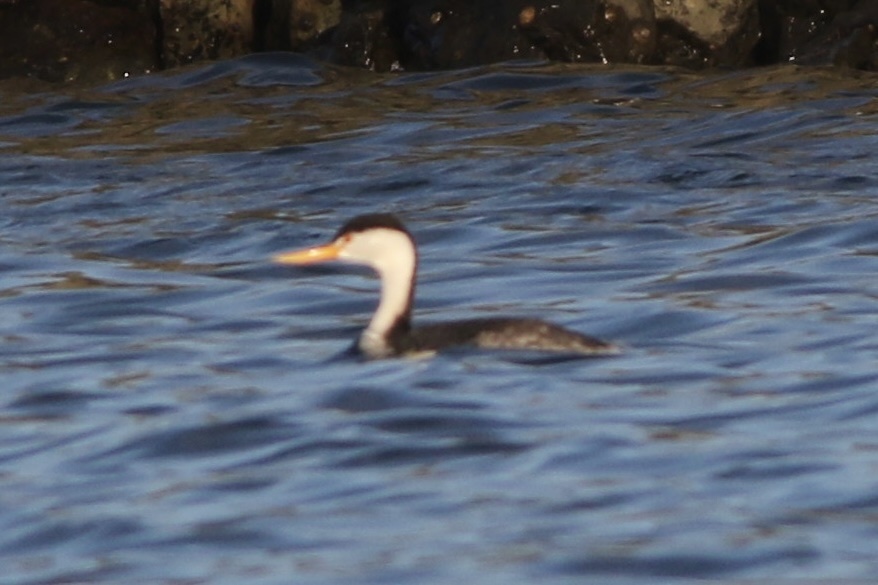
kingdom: Animalia
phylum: Chordata
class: Aves
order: Podicipediformes
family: Podicipedidae
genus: Aechmophorus
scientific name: Aechmophorus clarkii
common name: Clark's grebe
